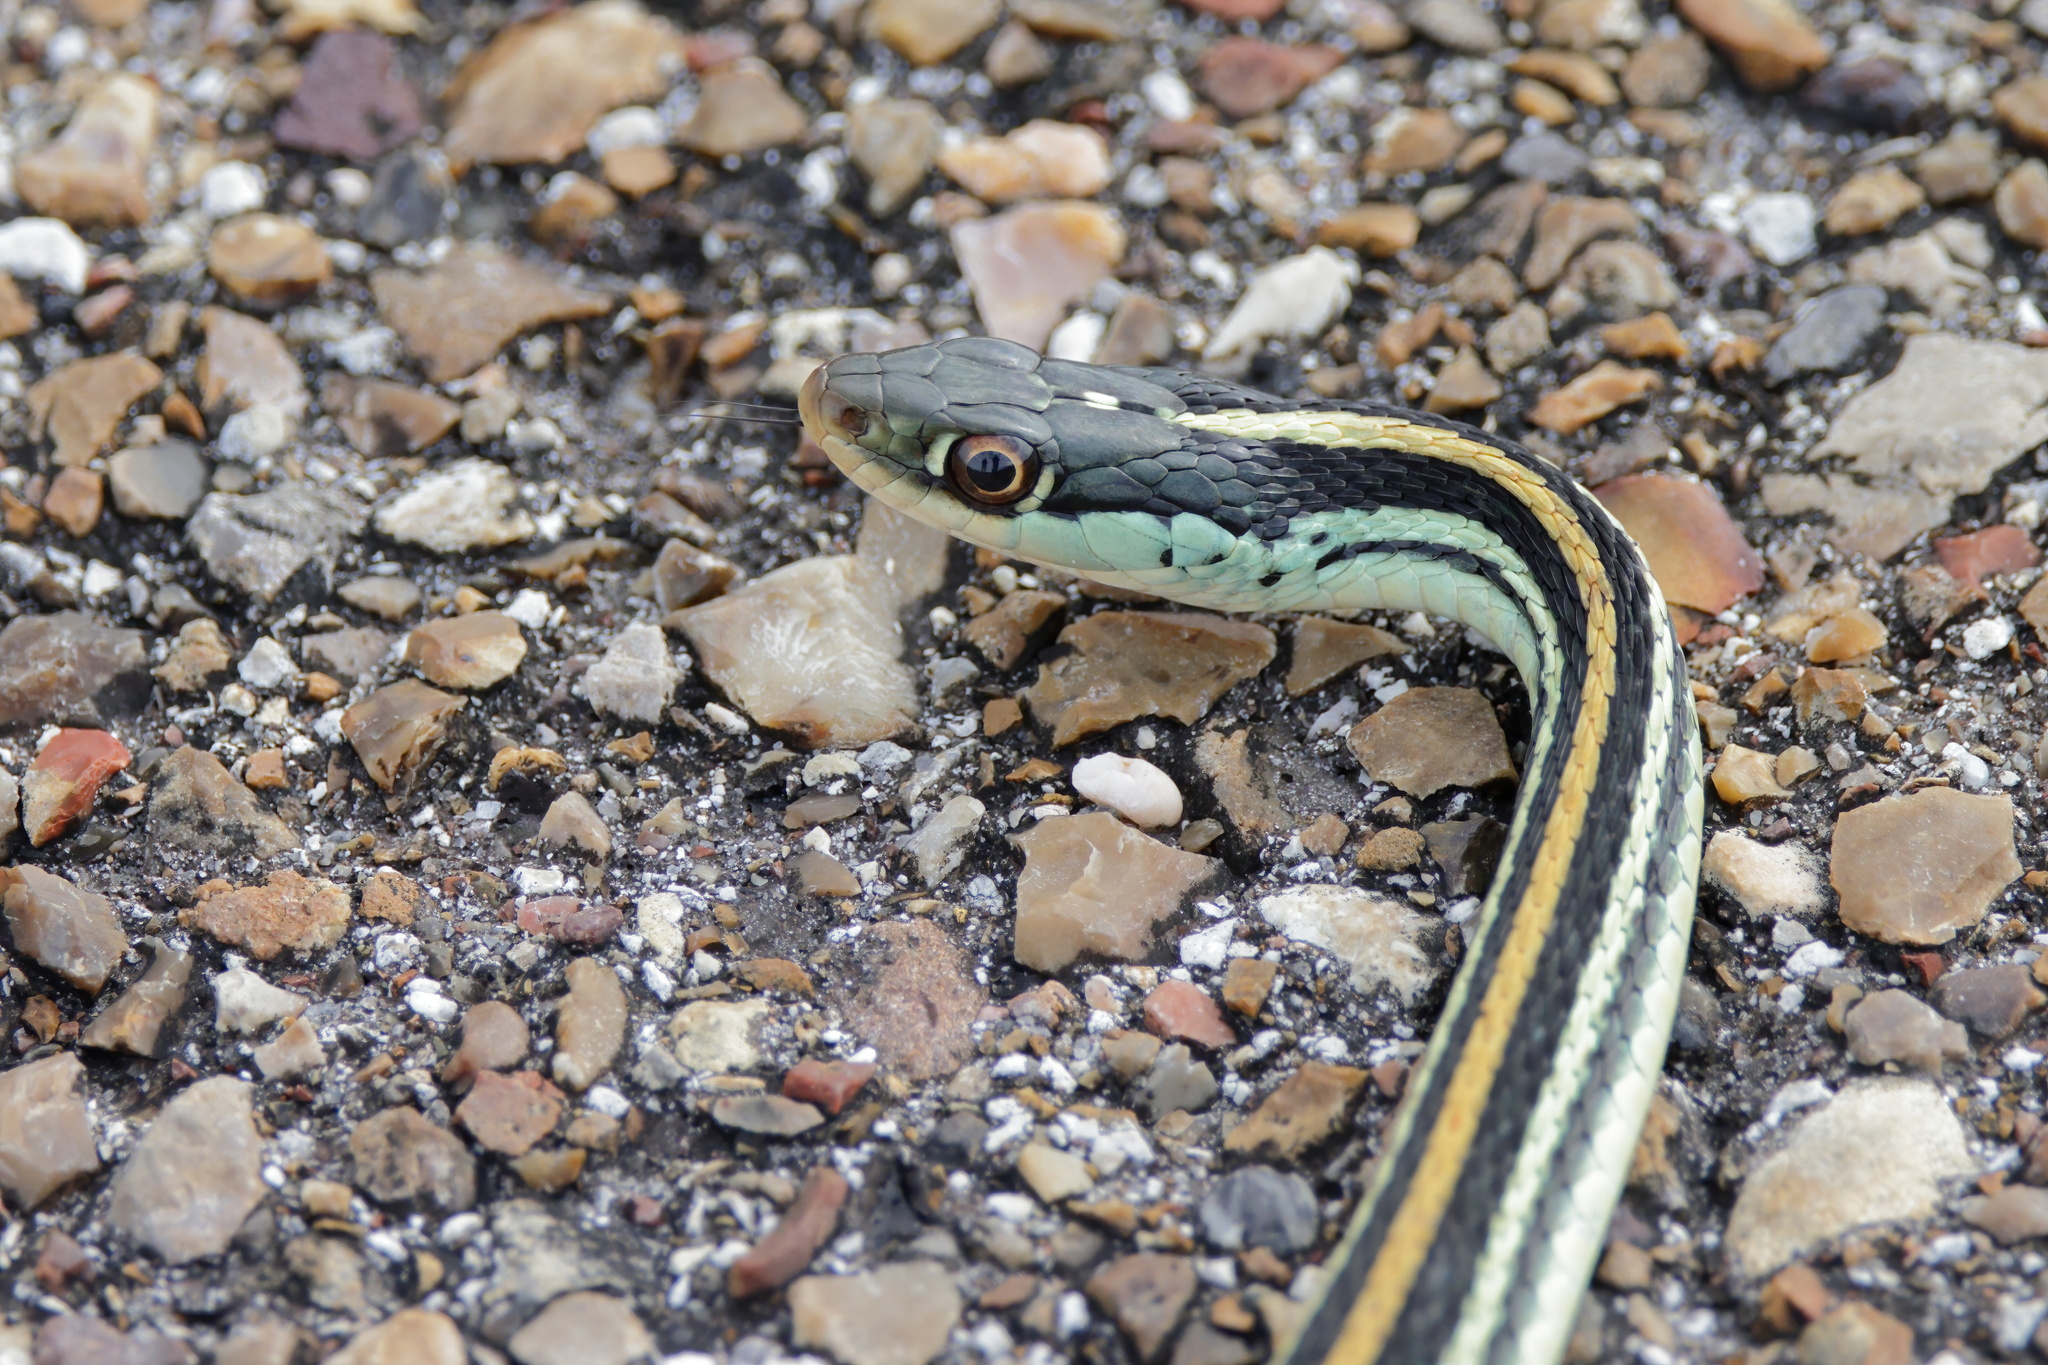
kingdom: Animalia
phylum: Chordata
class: Squamata
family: Colubridae
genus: Thamnophis
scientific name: Thamnophis proximus
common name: Western ribbon snake
